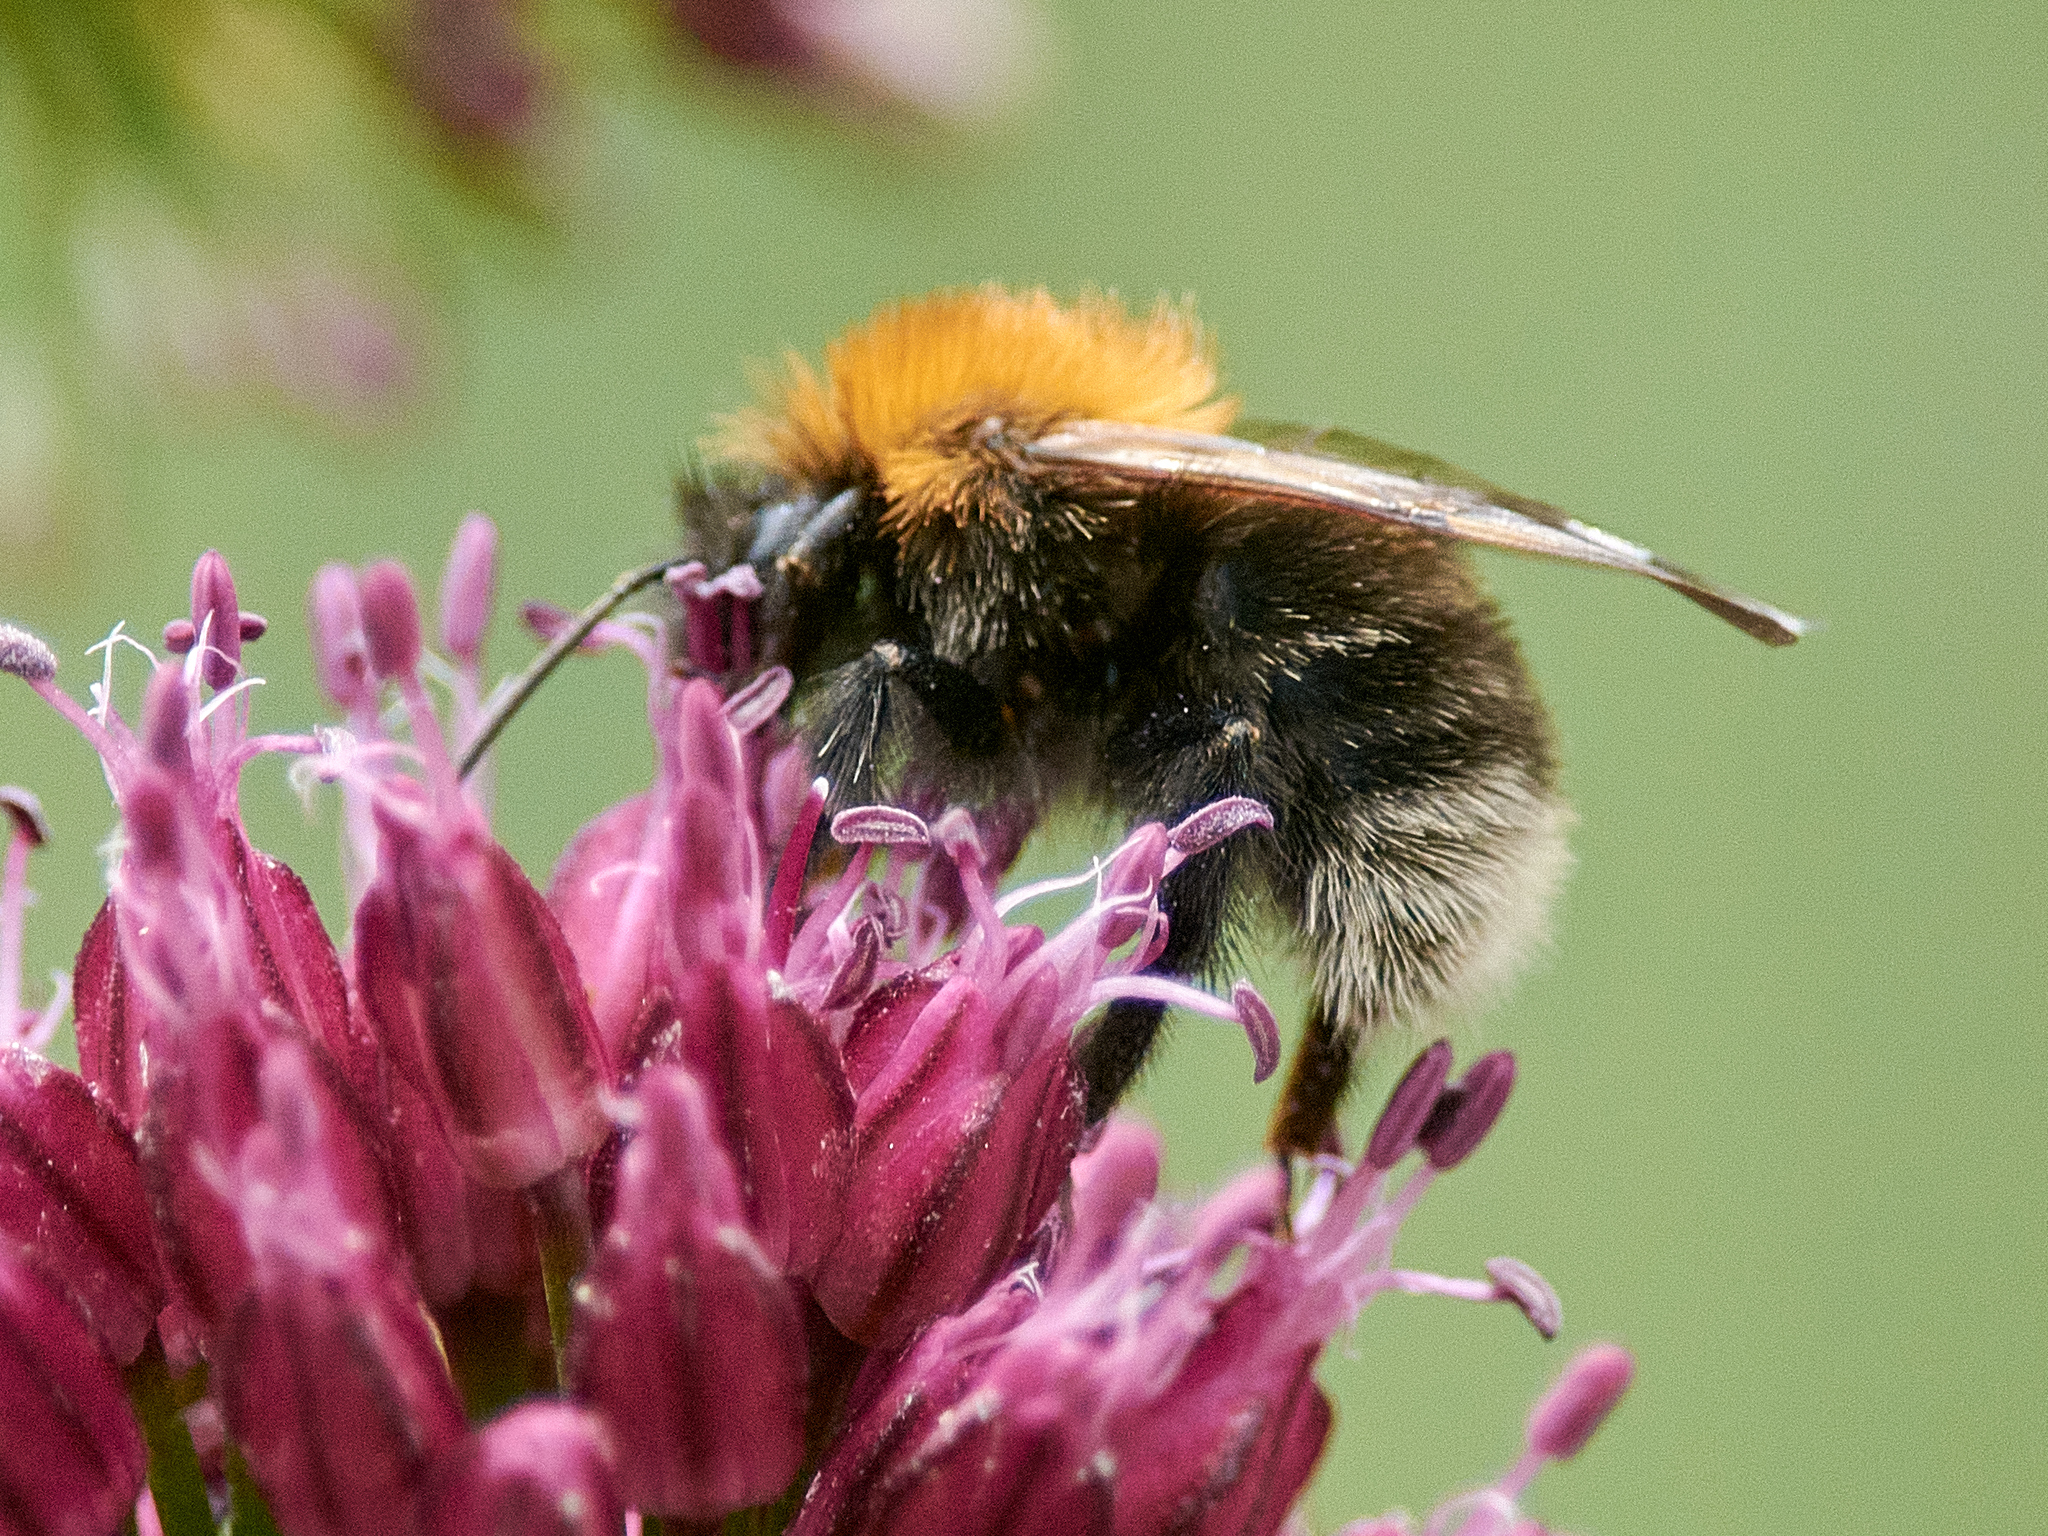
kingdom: Animalia
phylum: Arthropoda
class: Insecta
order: Hymenoptera
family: Apidae
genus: Bombus
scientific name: Bombus hypnorum
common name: New garden bumblebee
